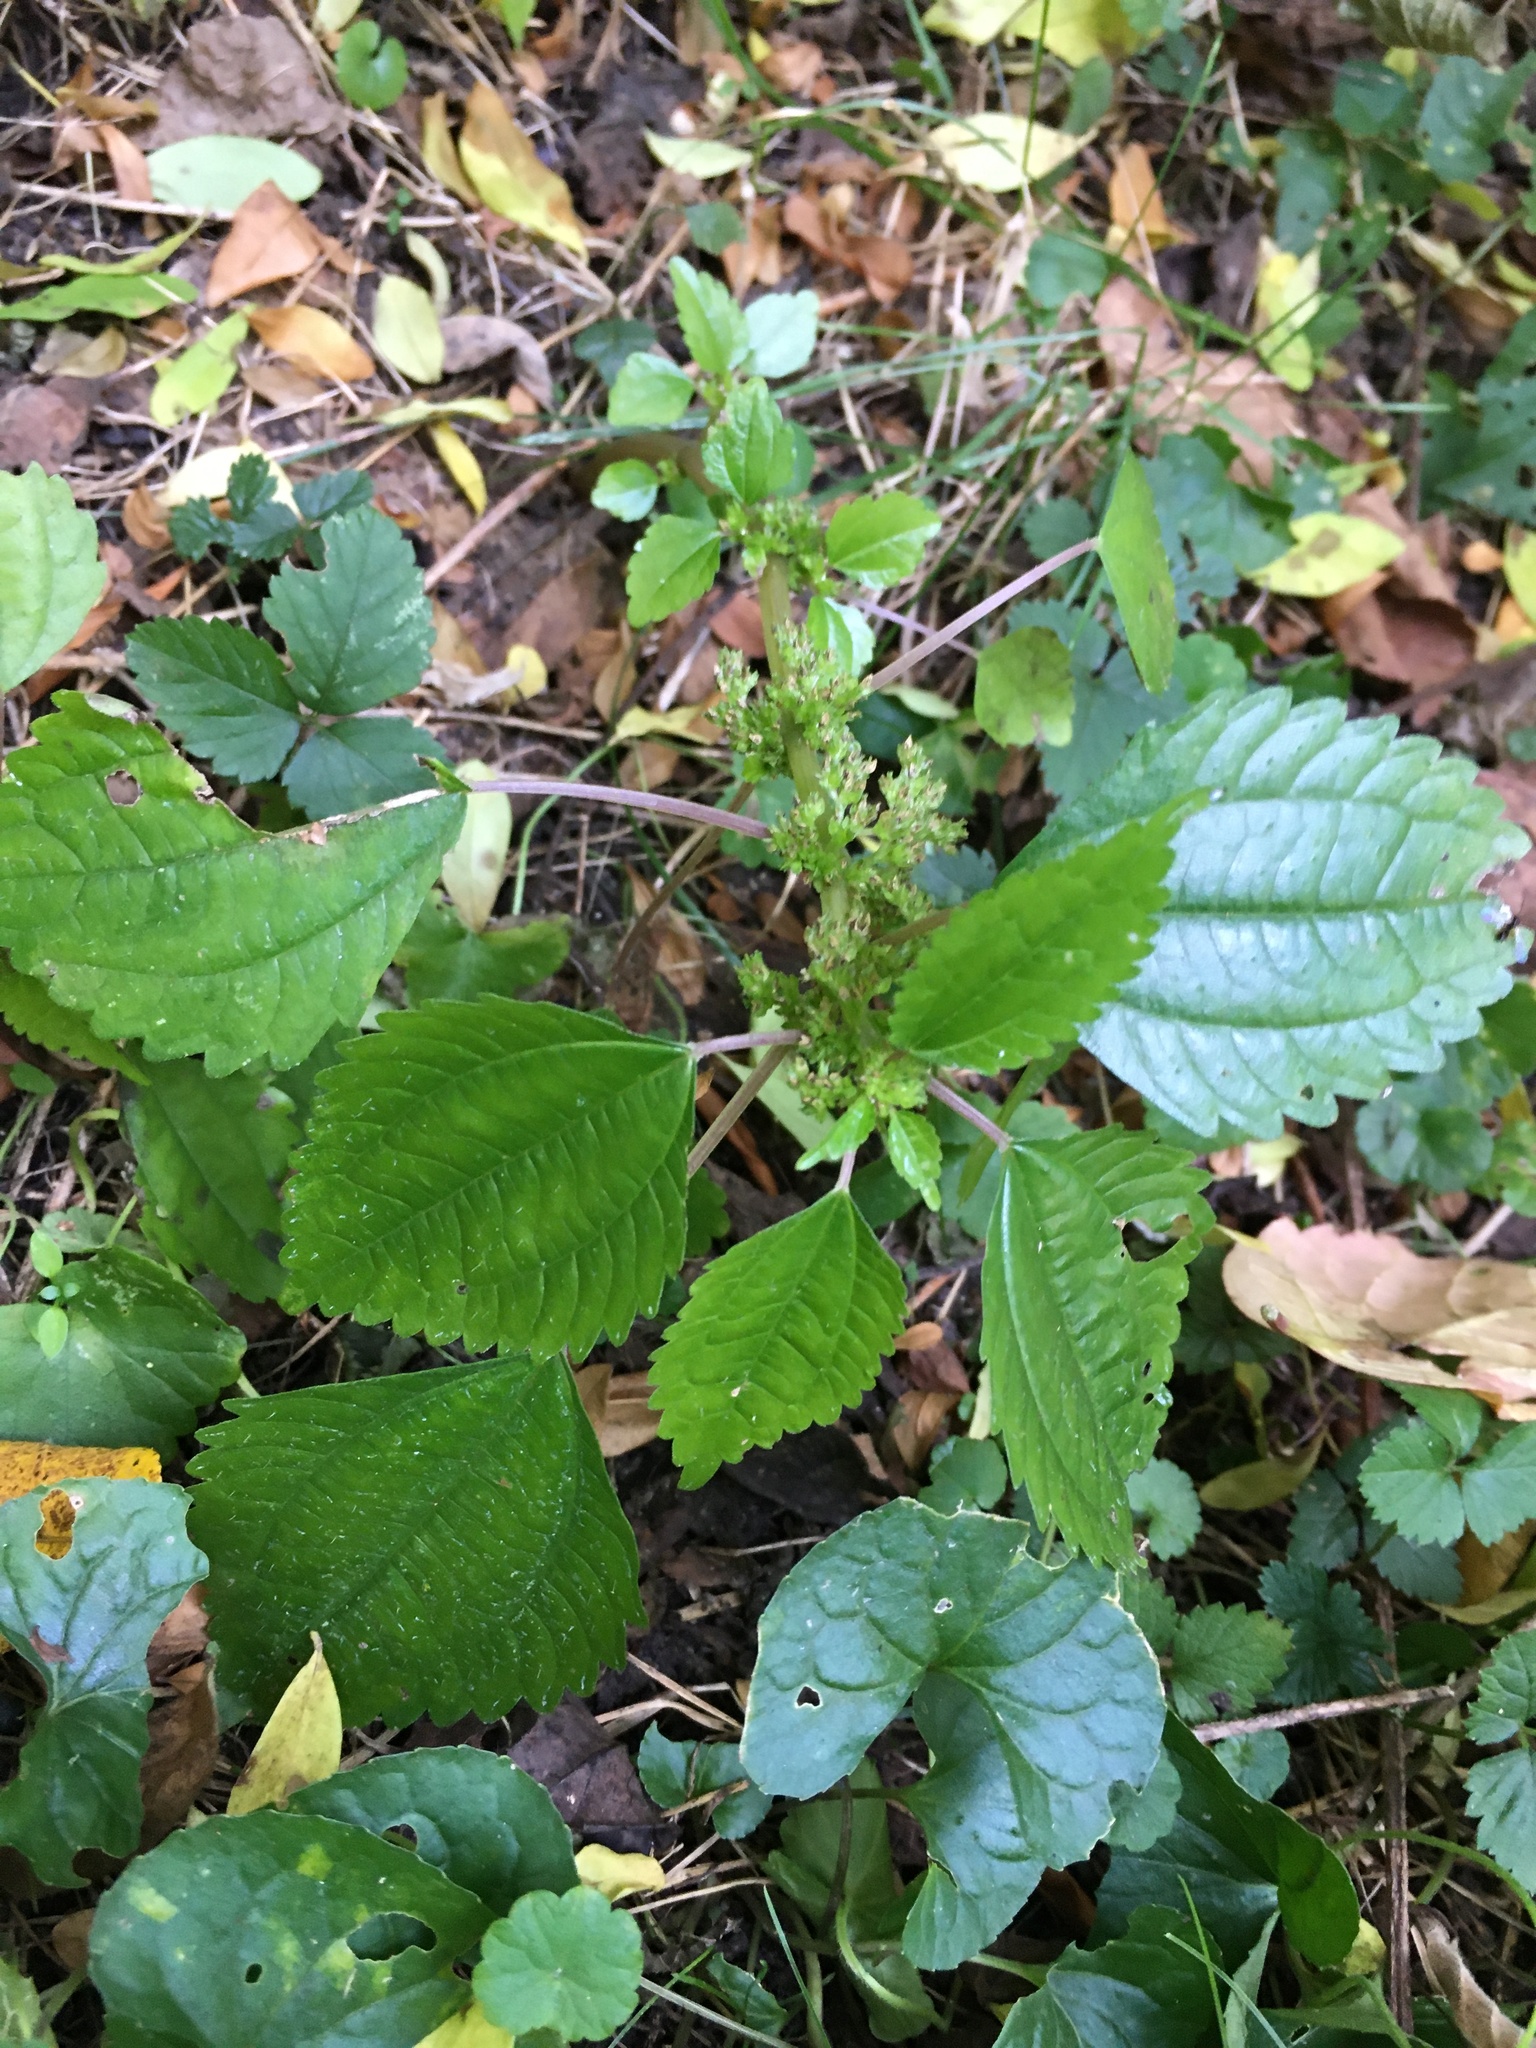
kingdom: Plantae
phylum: Tracheophyta
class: Magnoliopsida
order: Rosales
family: Urticaceae
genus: Pilea
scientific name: Pilea pumila
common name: Clearweed
